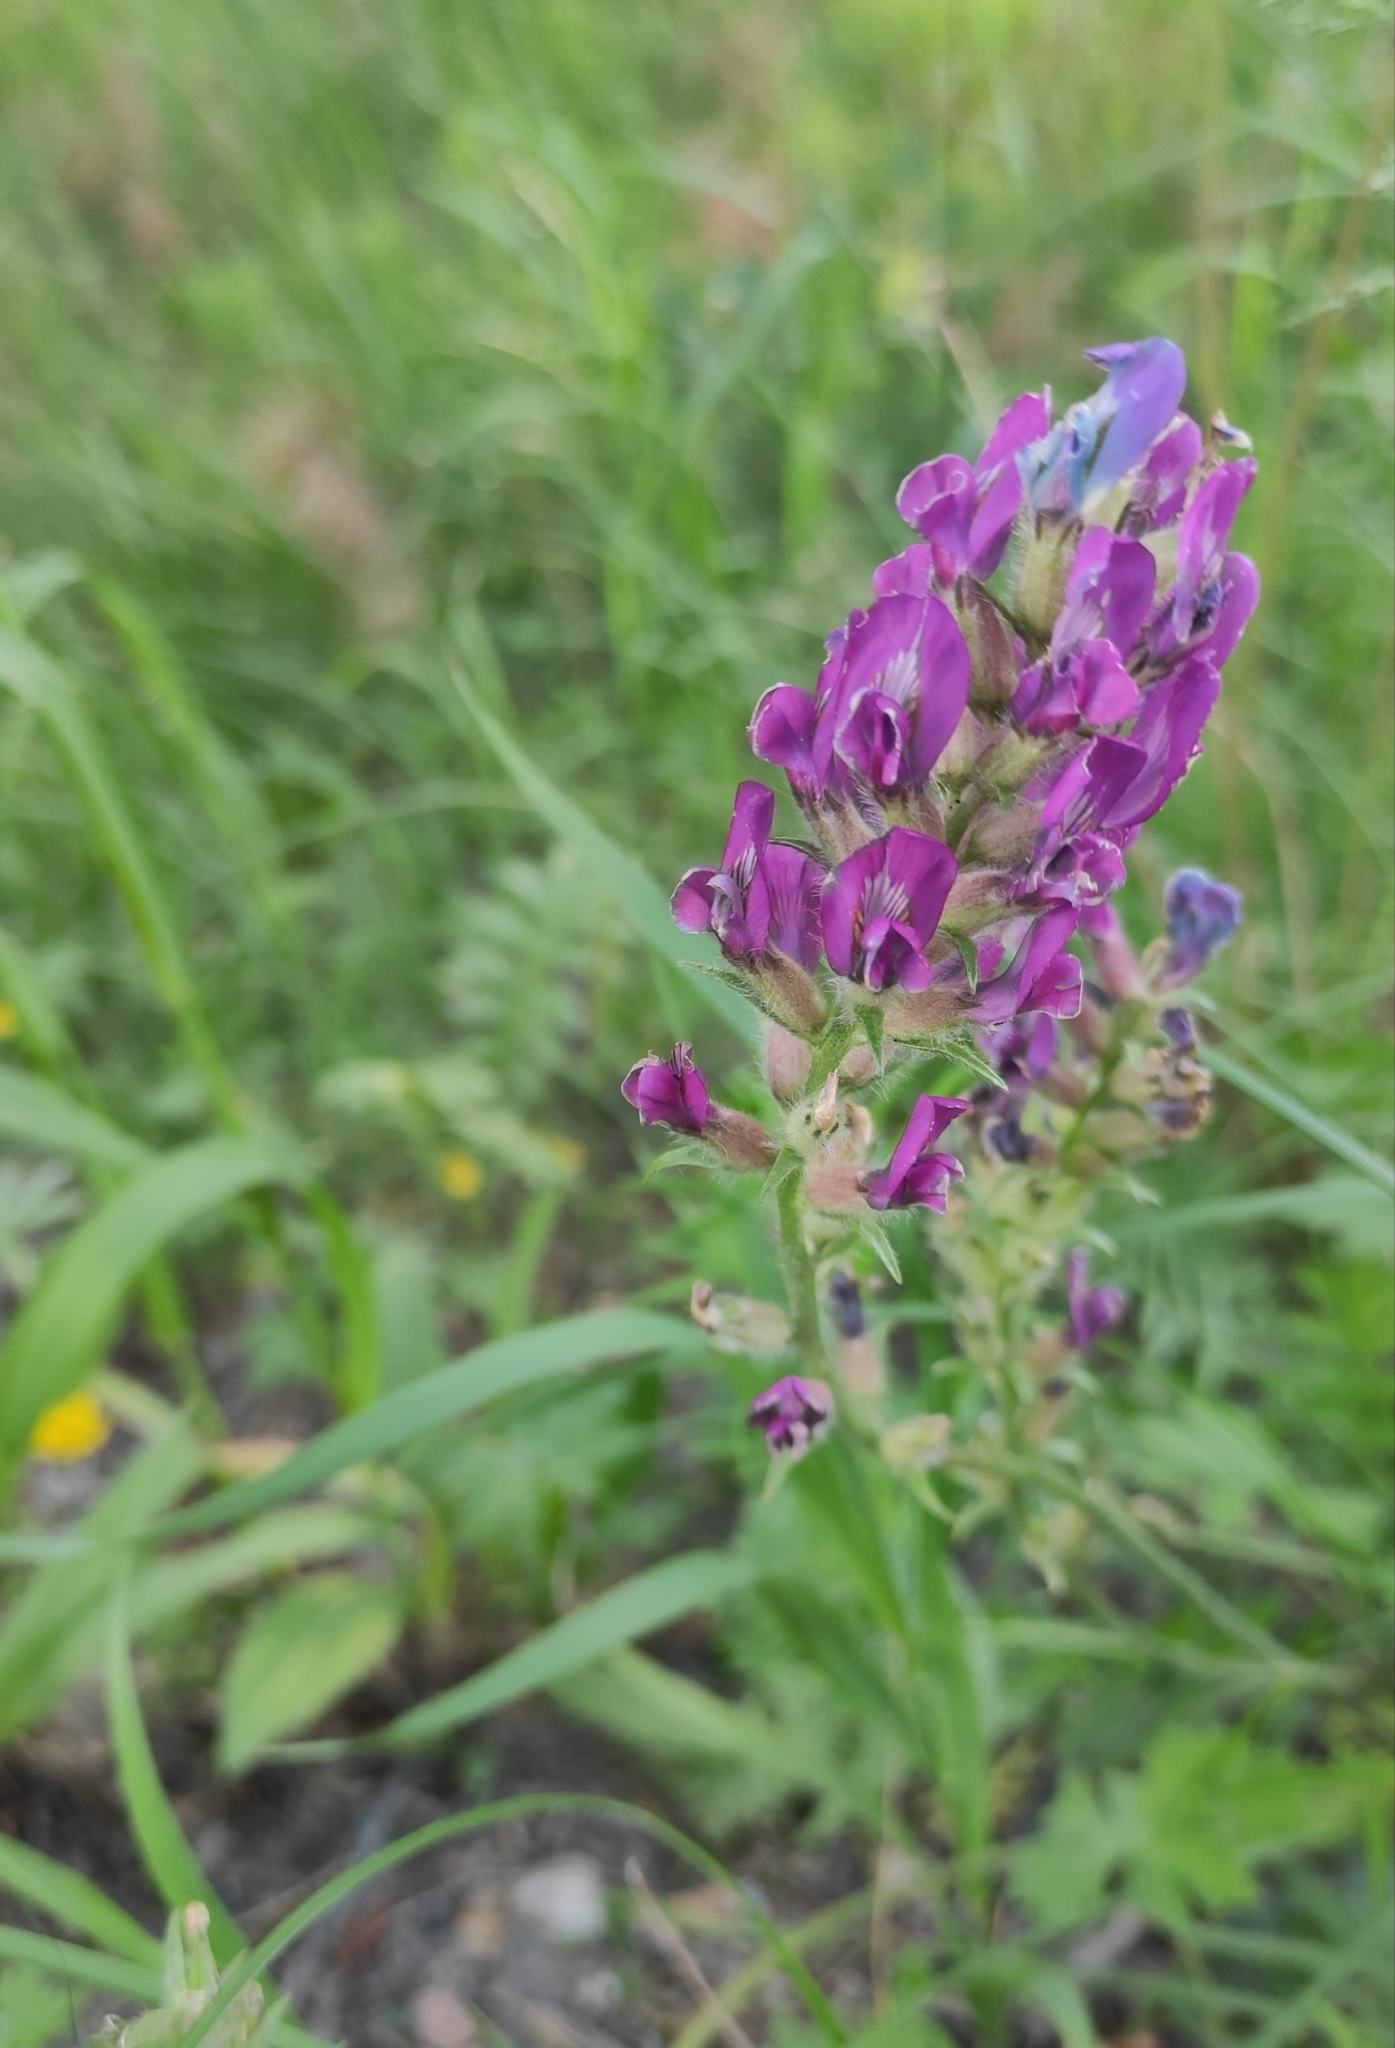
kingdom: Plantae
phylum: Tracheophyta
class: Magnoliopsida
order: Fabales
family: Fabaceae
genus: Oxytropis
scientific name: Oxytropis strobilacea
